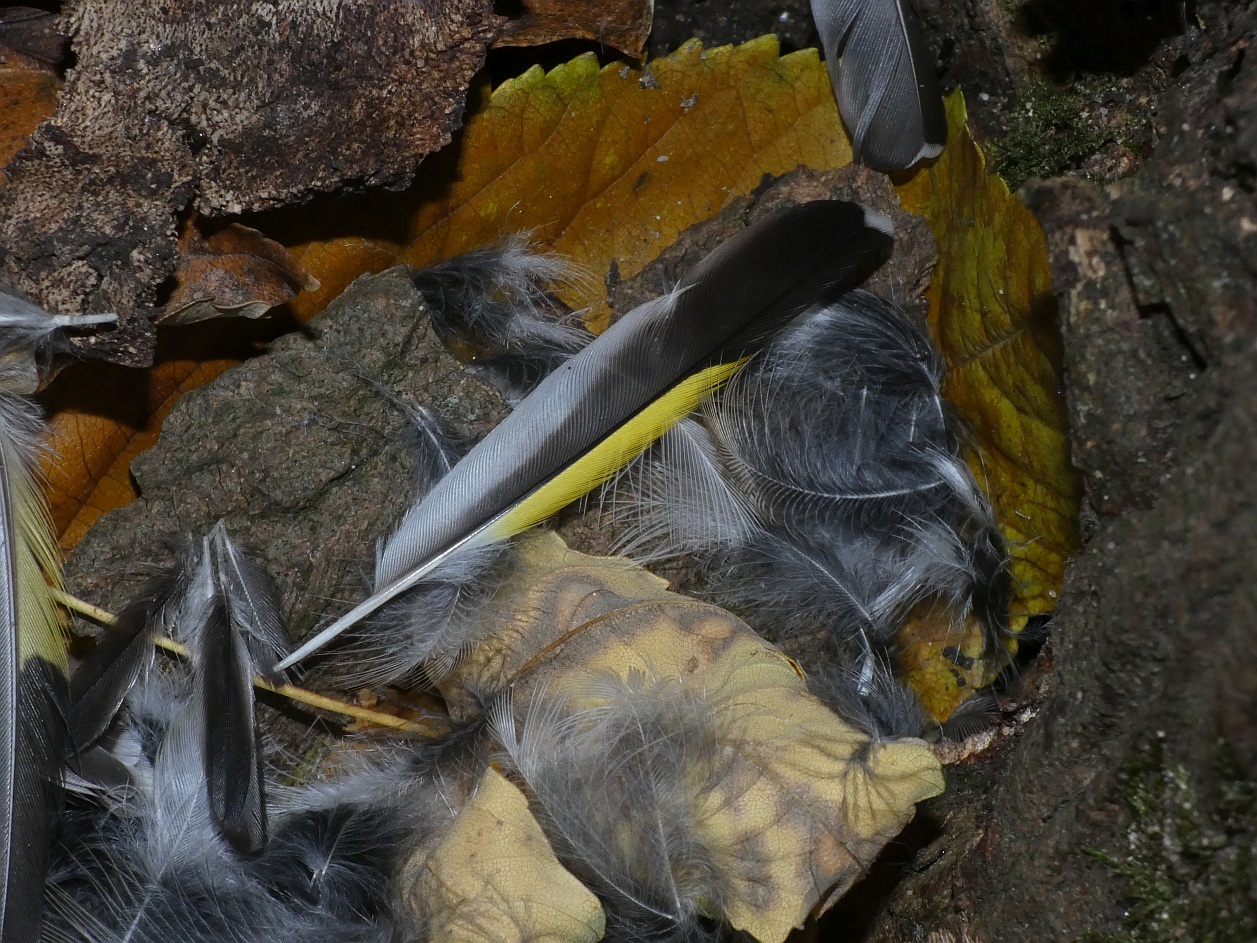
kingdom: Animalia
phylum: Chordata
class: Aves
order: Passeriformes
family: Fringillidae
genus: Carduelis
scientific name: Carduelis carduelis
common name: European goldfinch
